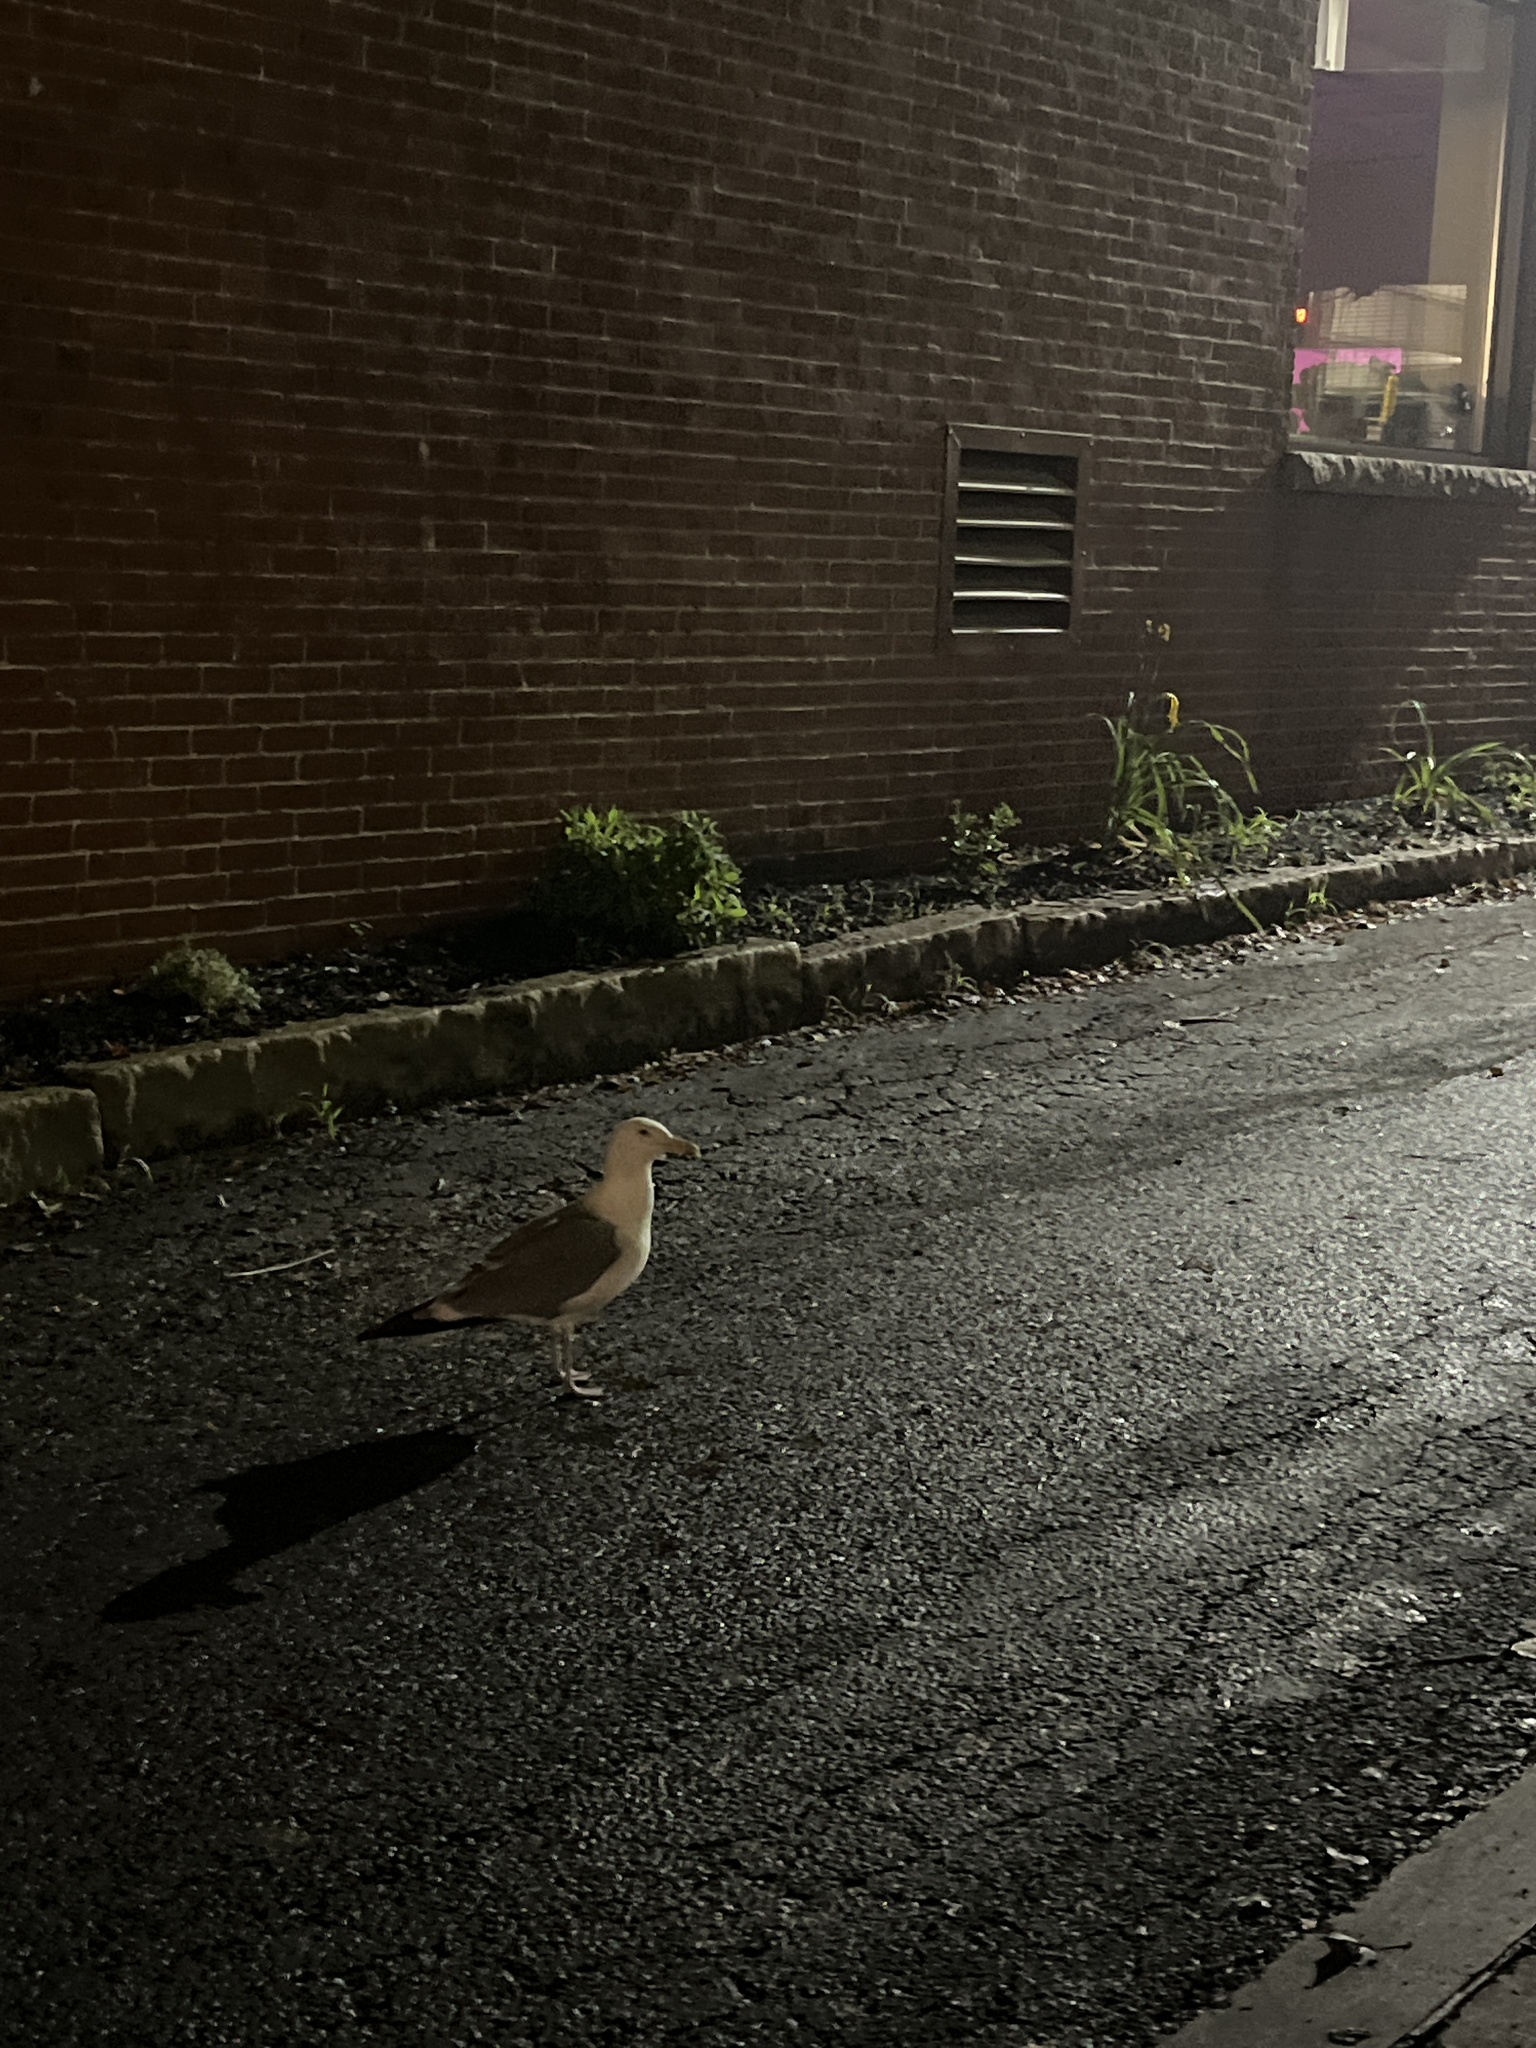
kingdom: Animalia
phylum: Chordata
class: Aves
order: Charadriiformes
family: Laridae
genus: Larus
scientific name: Larus argentatus
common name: Herring gull
